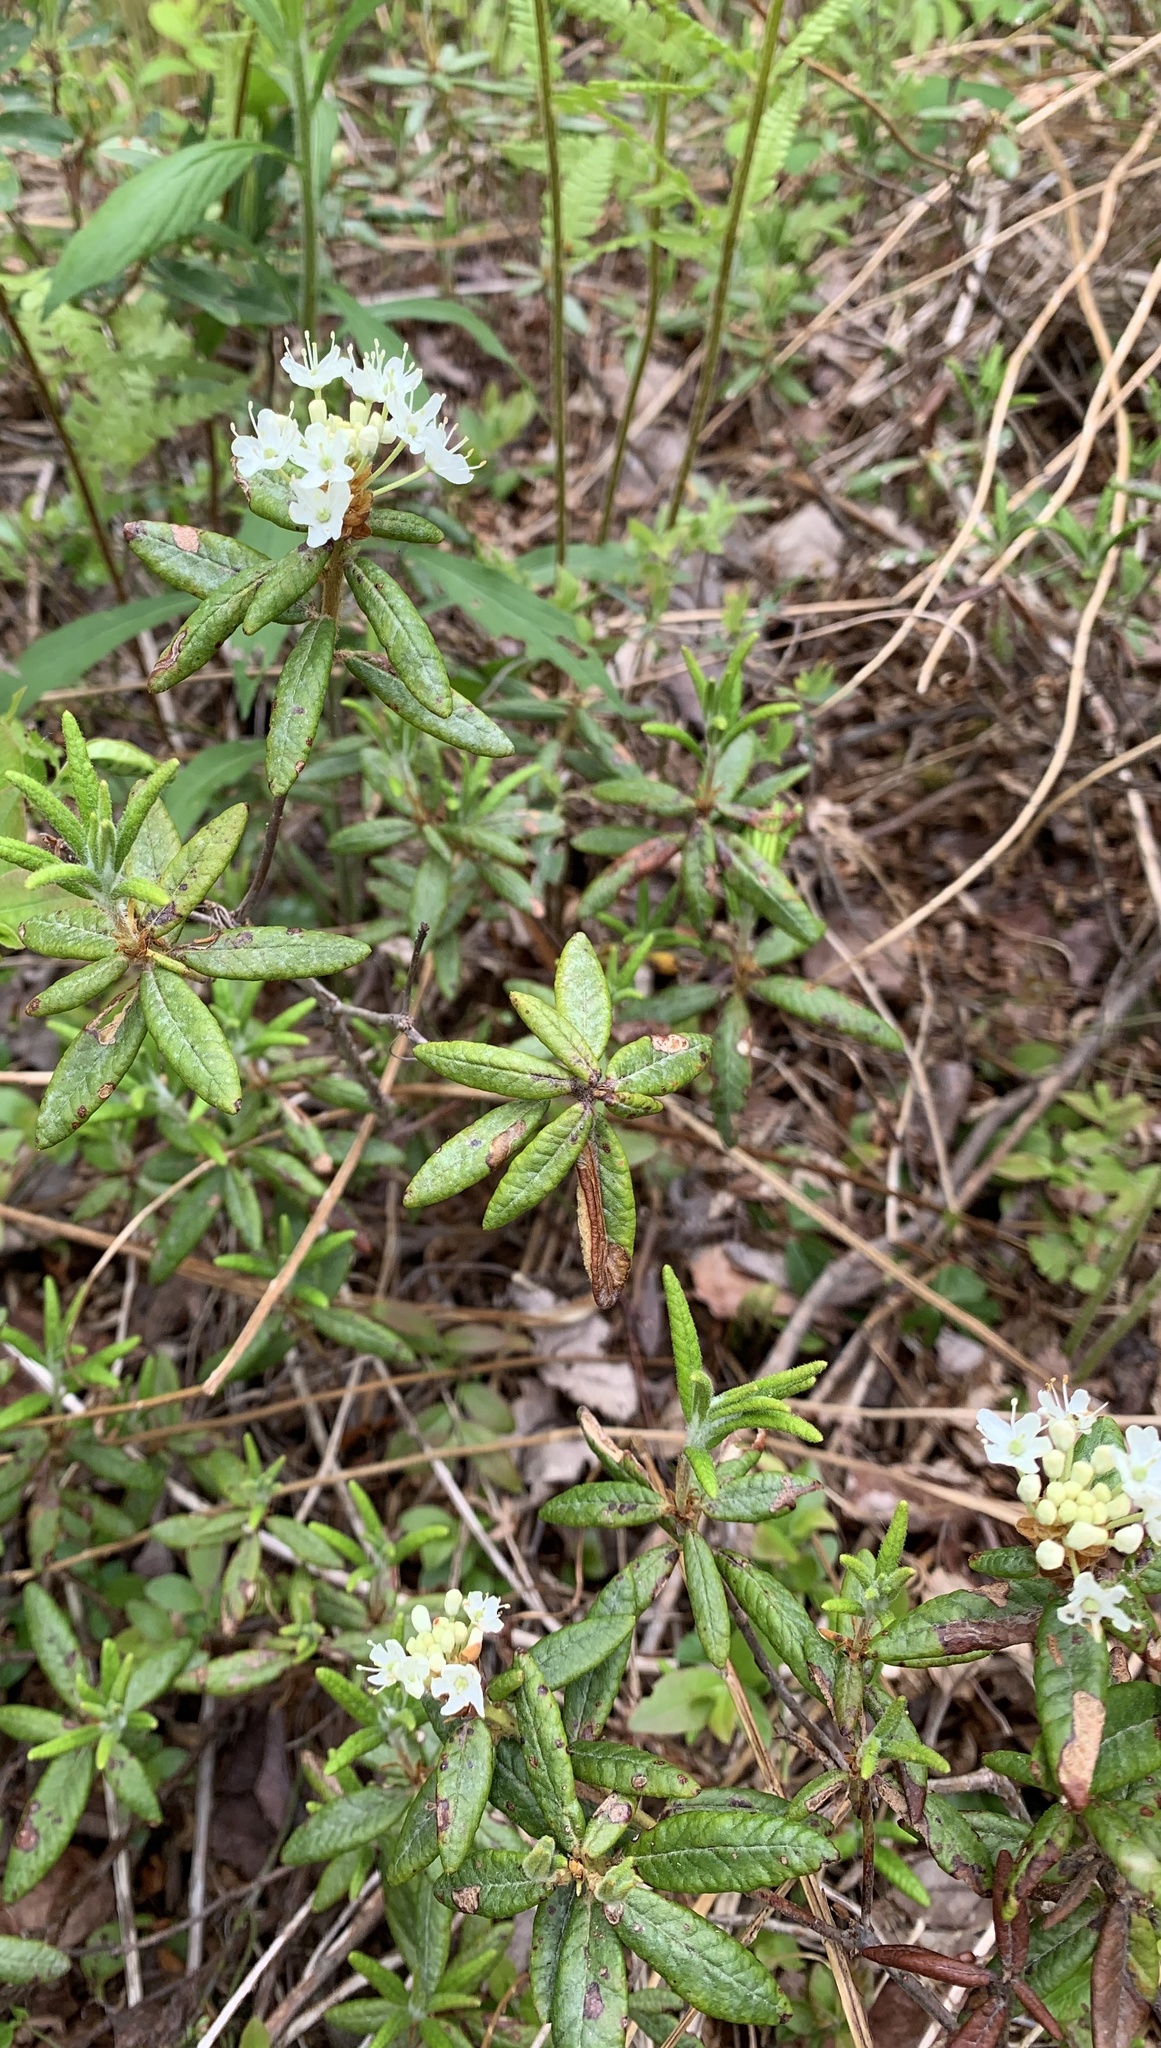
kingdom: Plantae
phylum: Tracheophyta
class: Magnoliopsida
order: Ericales
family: Ericaceae
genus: Rhododendron
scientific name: Rhododendron groenlandicum
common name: Bog labrador tea
